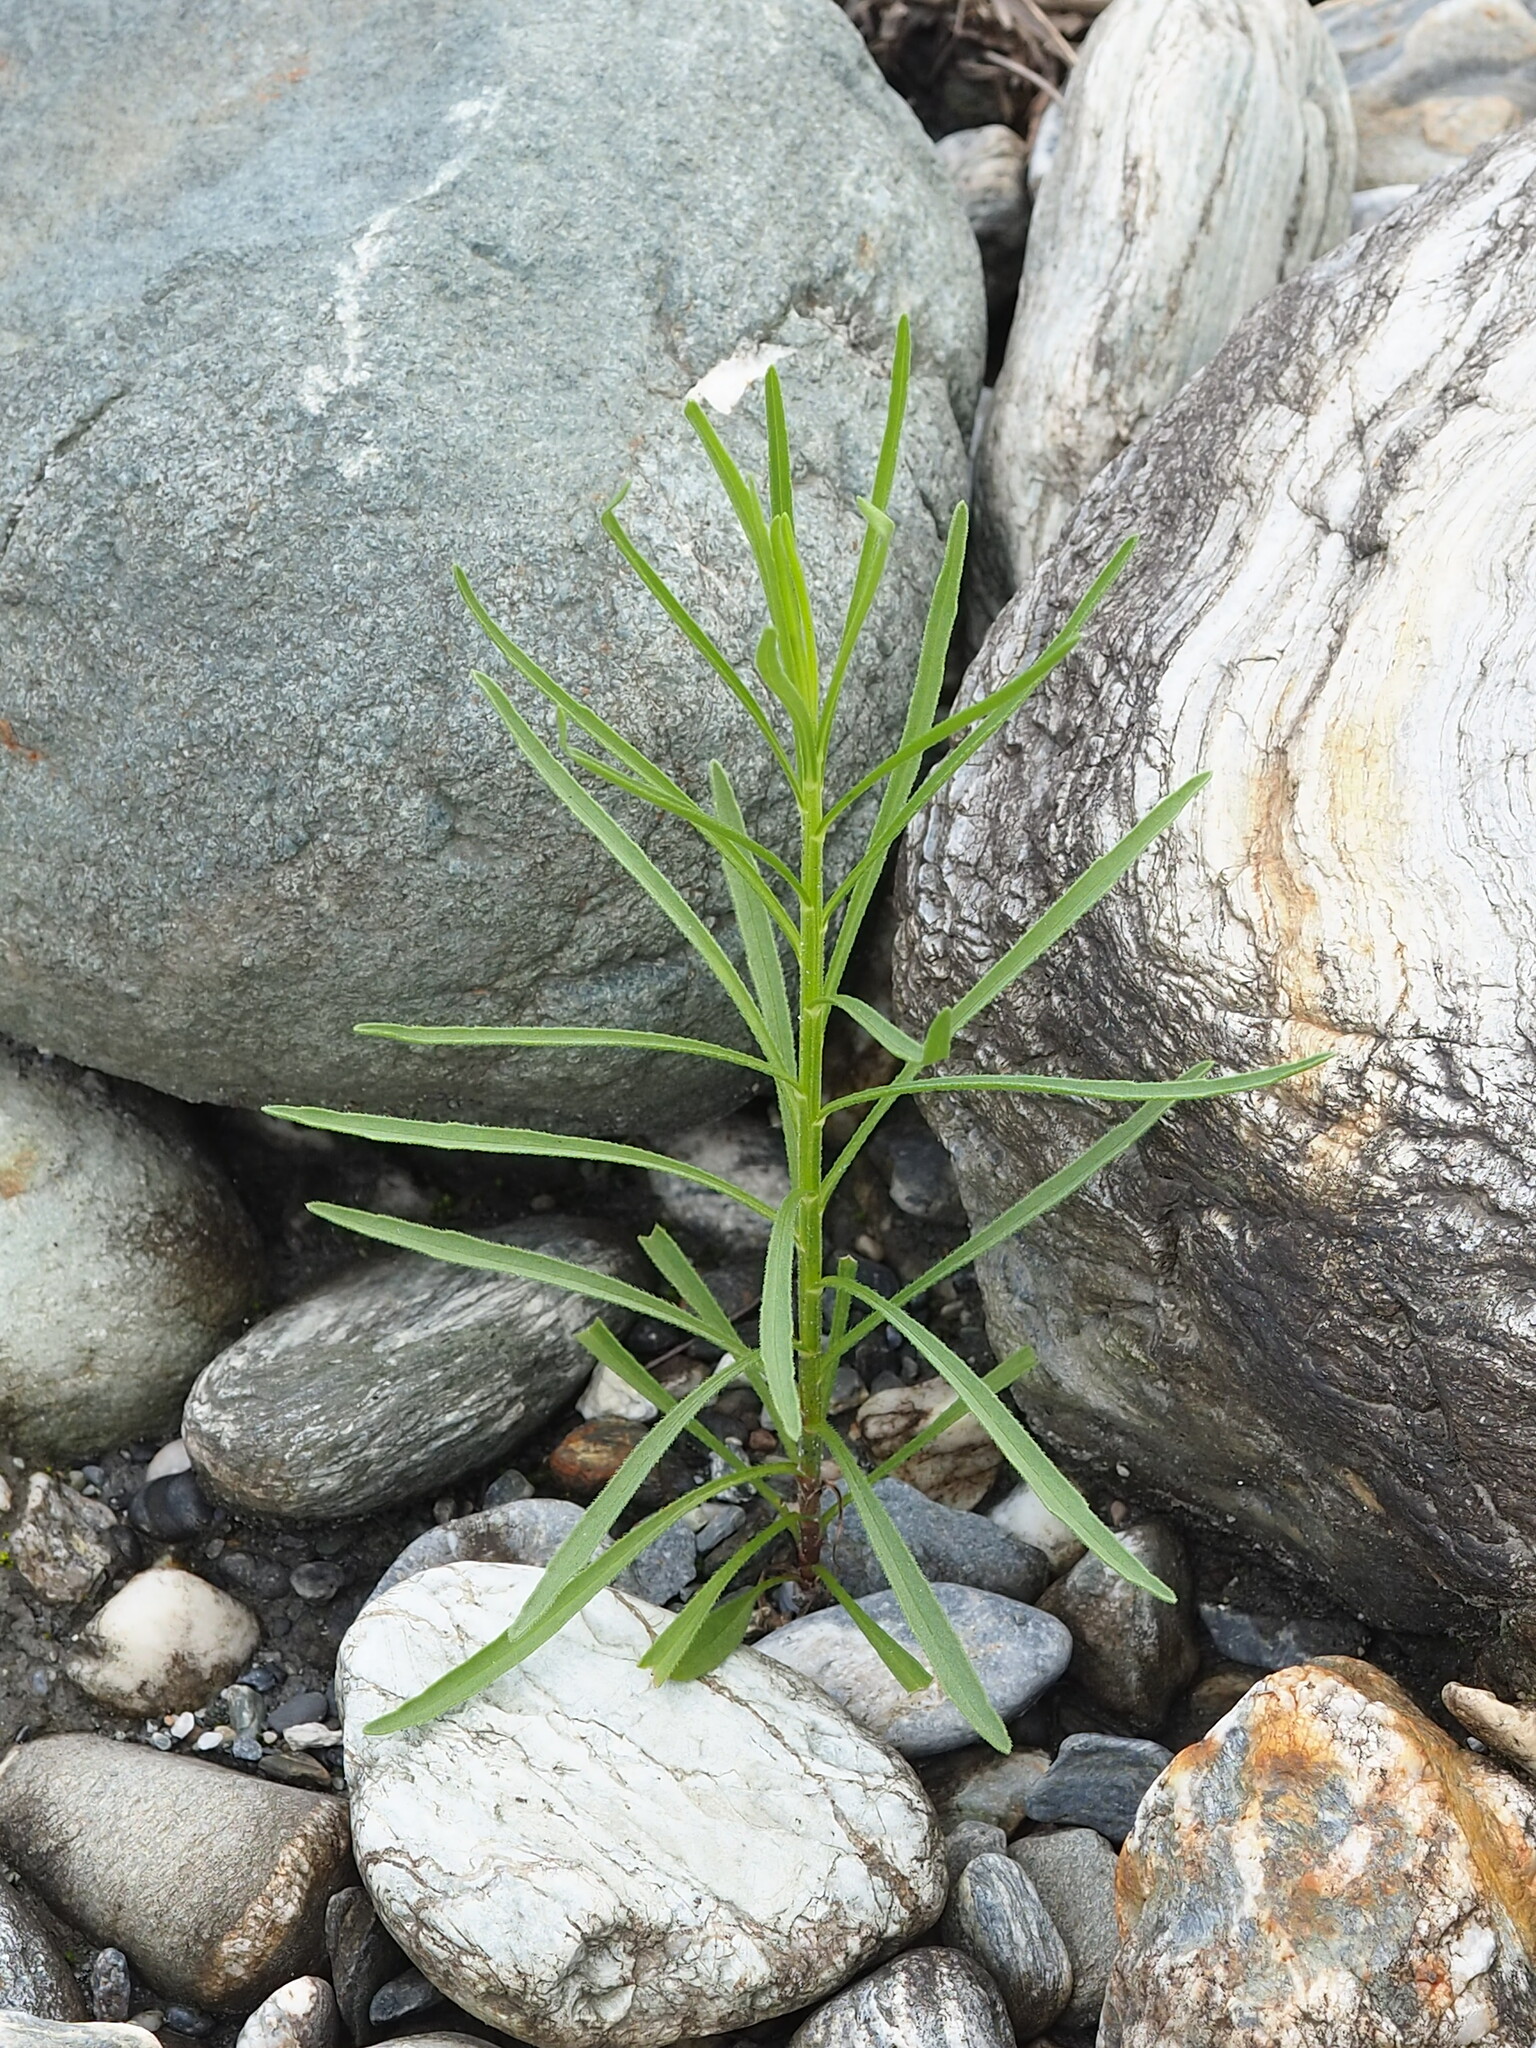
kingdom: Plantae
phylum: Tracheophyta
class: Magnoliopsida
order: Asterales
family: Asteraceae
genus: Heteropappus
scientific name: Heteropappus altaicus
